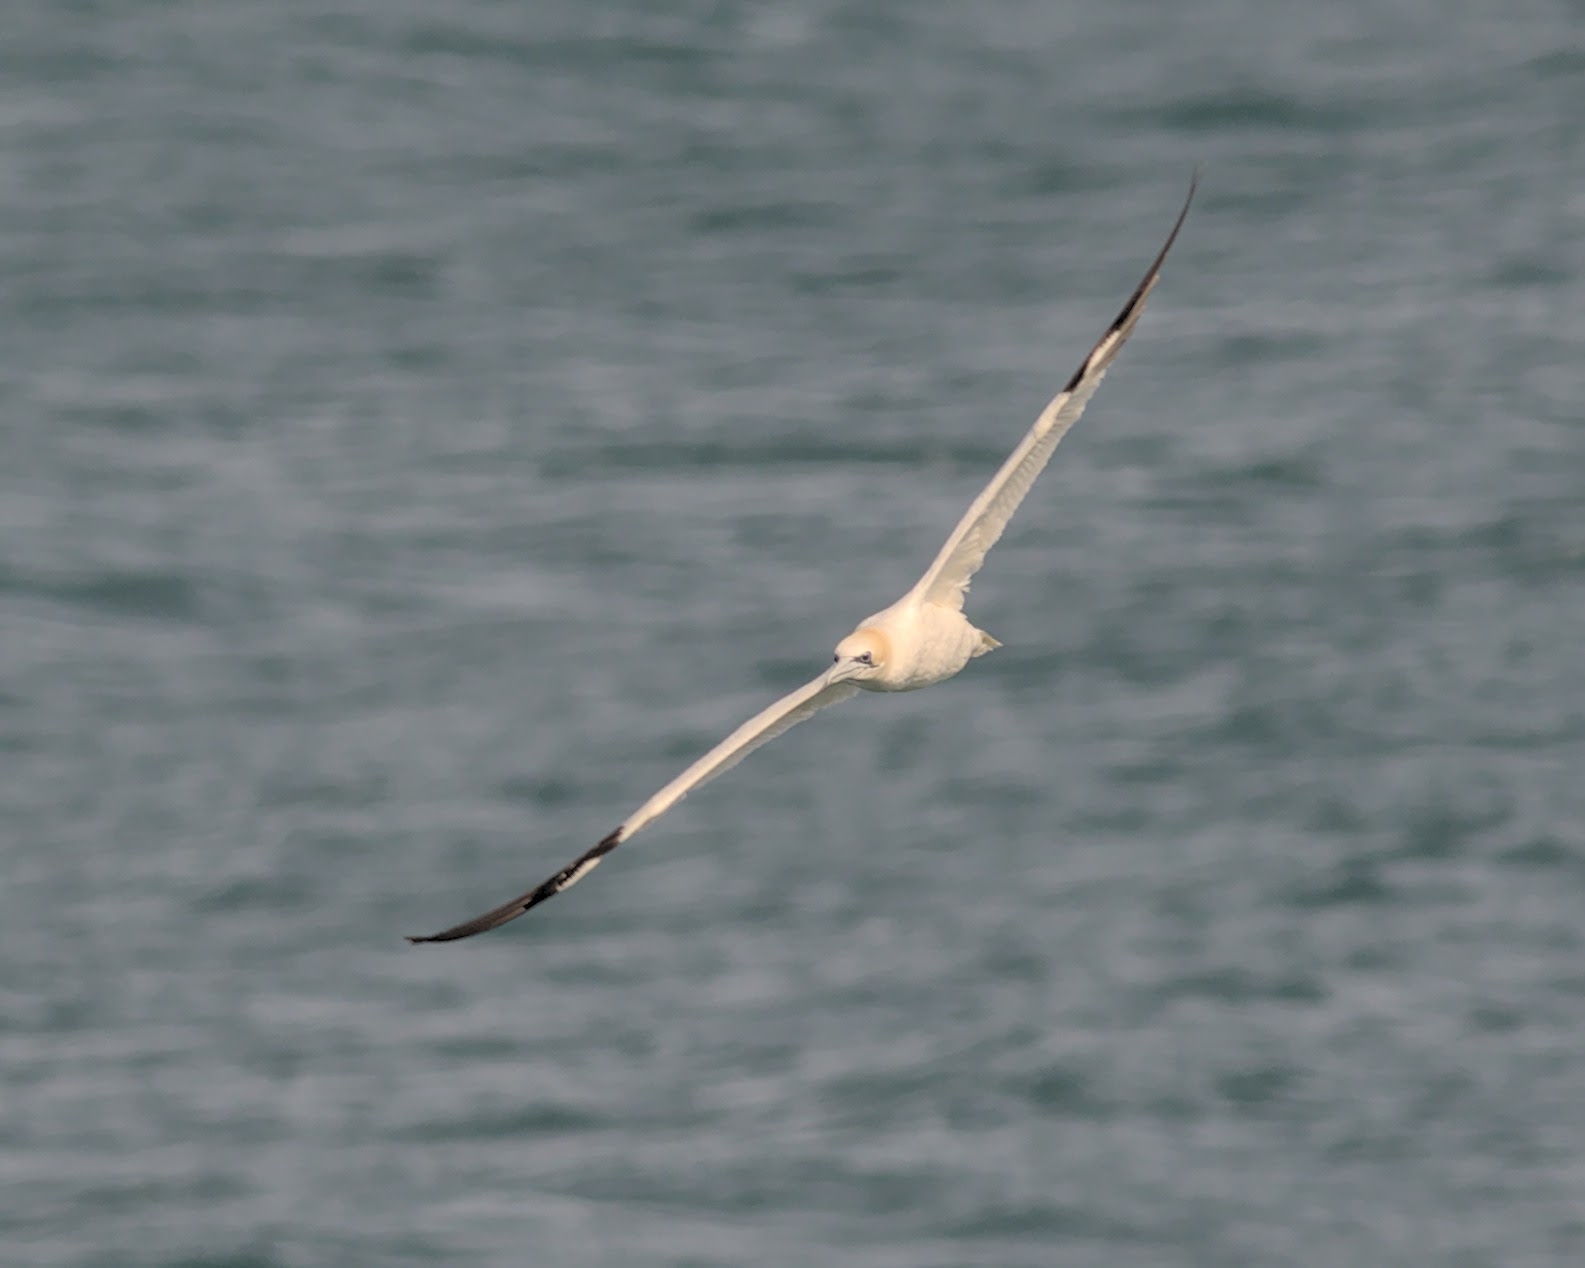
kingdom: Animalia
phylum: Chordata
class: Aves
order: Suliformes
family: Sulidae
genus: Morus
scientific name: Morus bassanus
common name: Northern gannet
